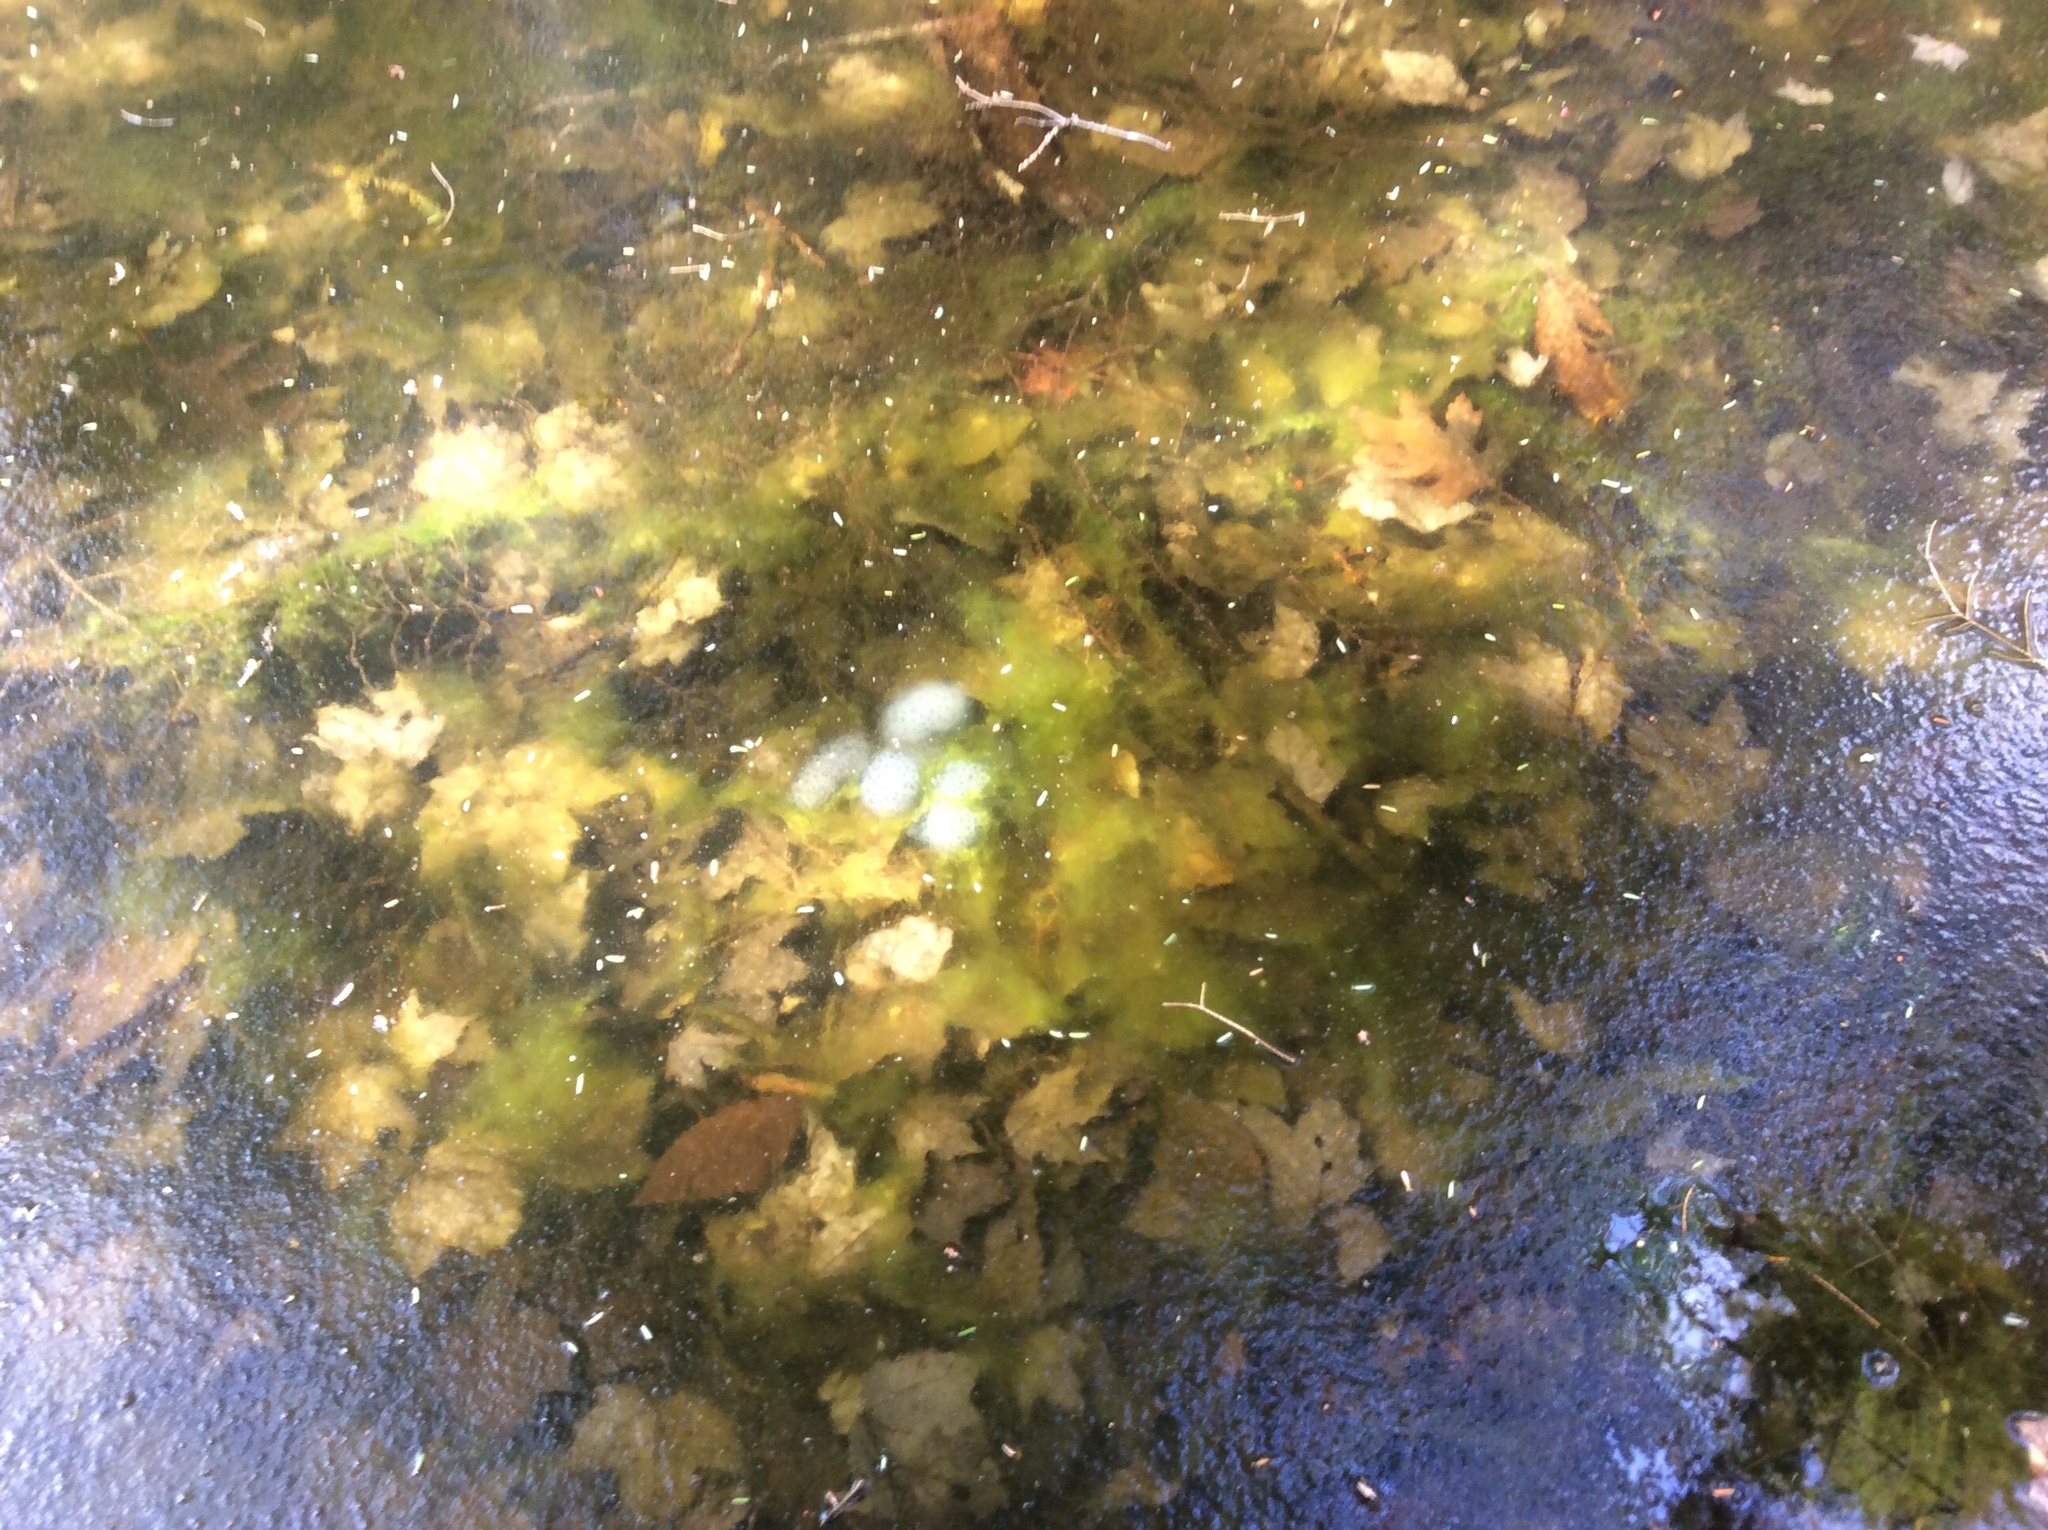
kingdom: Animalia
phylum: Chordata
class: Amphibia
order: Caudata
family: Ambystomatidae
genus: Ambystoma
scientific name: Ambystoma maculatum
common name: Spotted salamander
